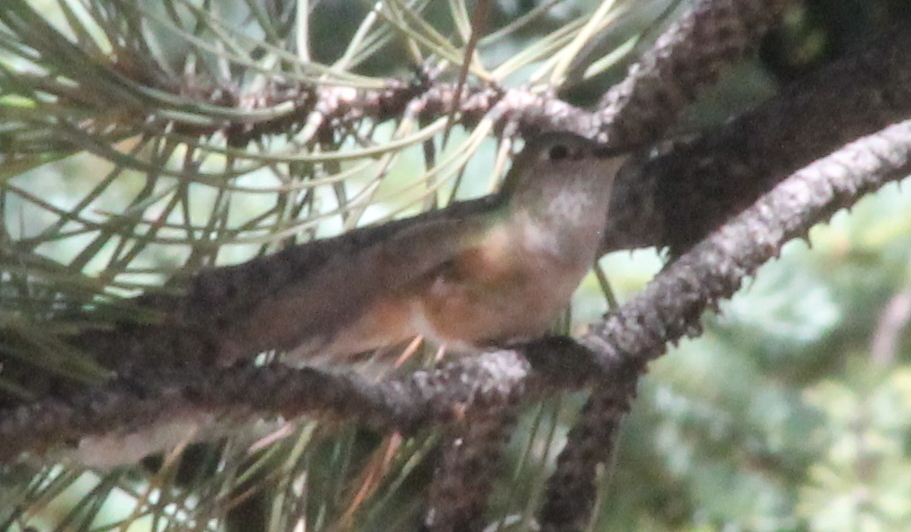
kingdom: Animalia
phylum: Chordata
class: Aves
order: Apodiformes
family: Trochilidae
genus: Selasphorus
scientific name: Selasphorus platycercus
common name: Broad-tailed hummingbird
